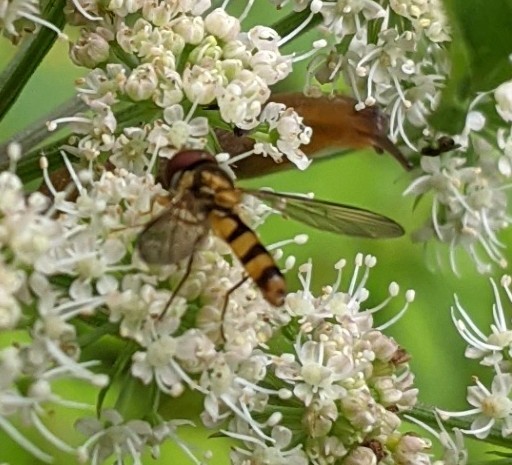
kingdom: Animalia
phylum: Arthropoda
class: Insecta
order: Diptera
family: Syrphidae
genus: Meliscaeva
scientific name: Meliscaeva cinctella
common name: American thintail fly
